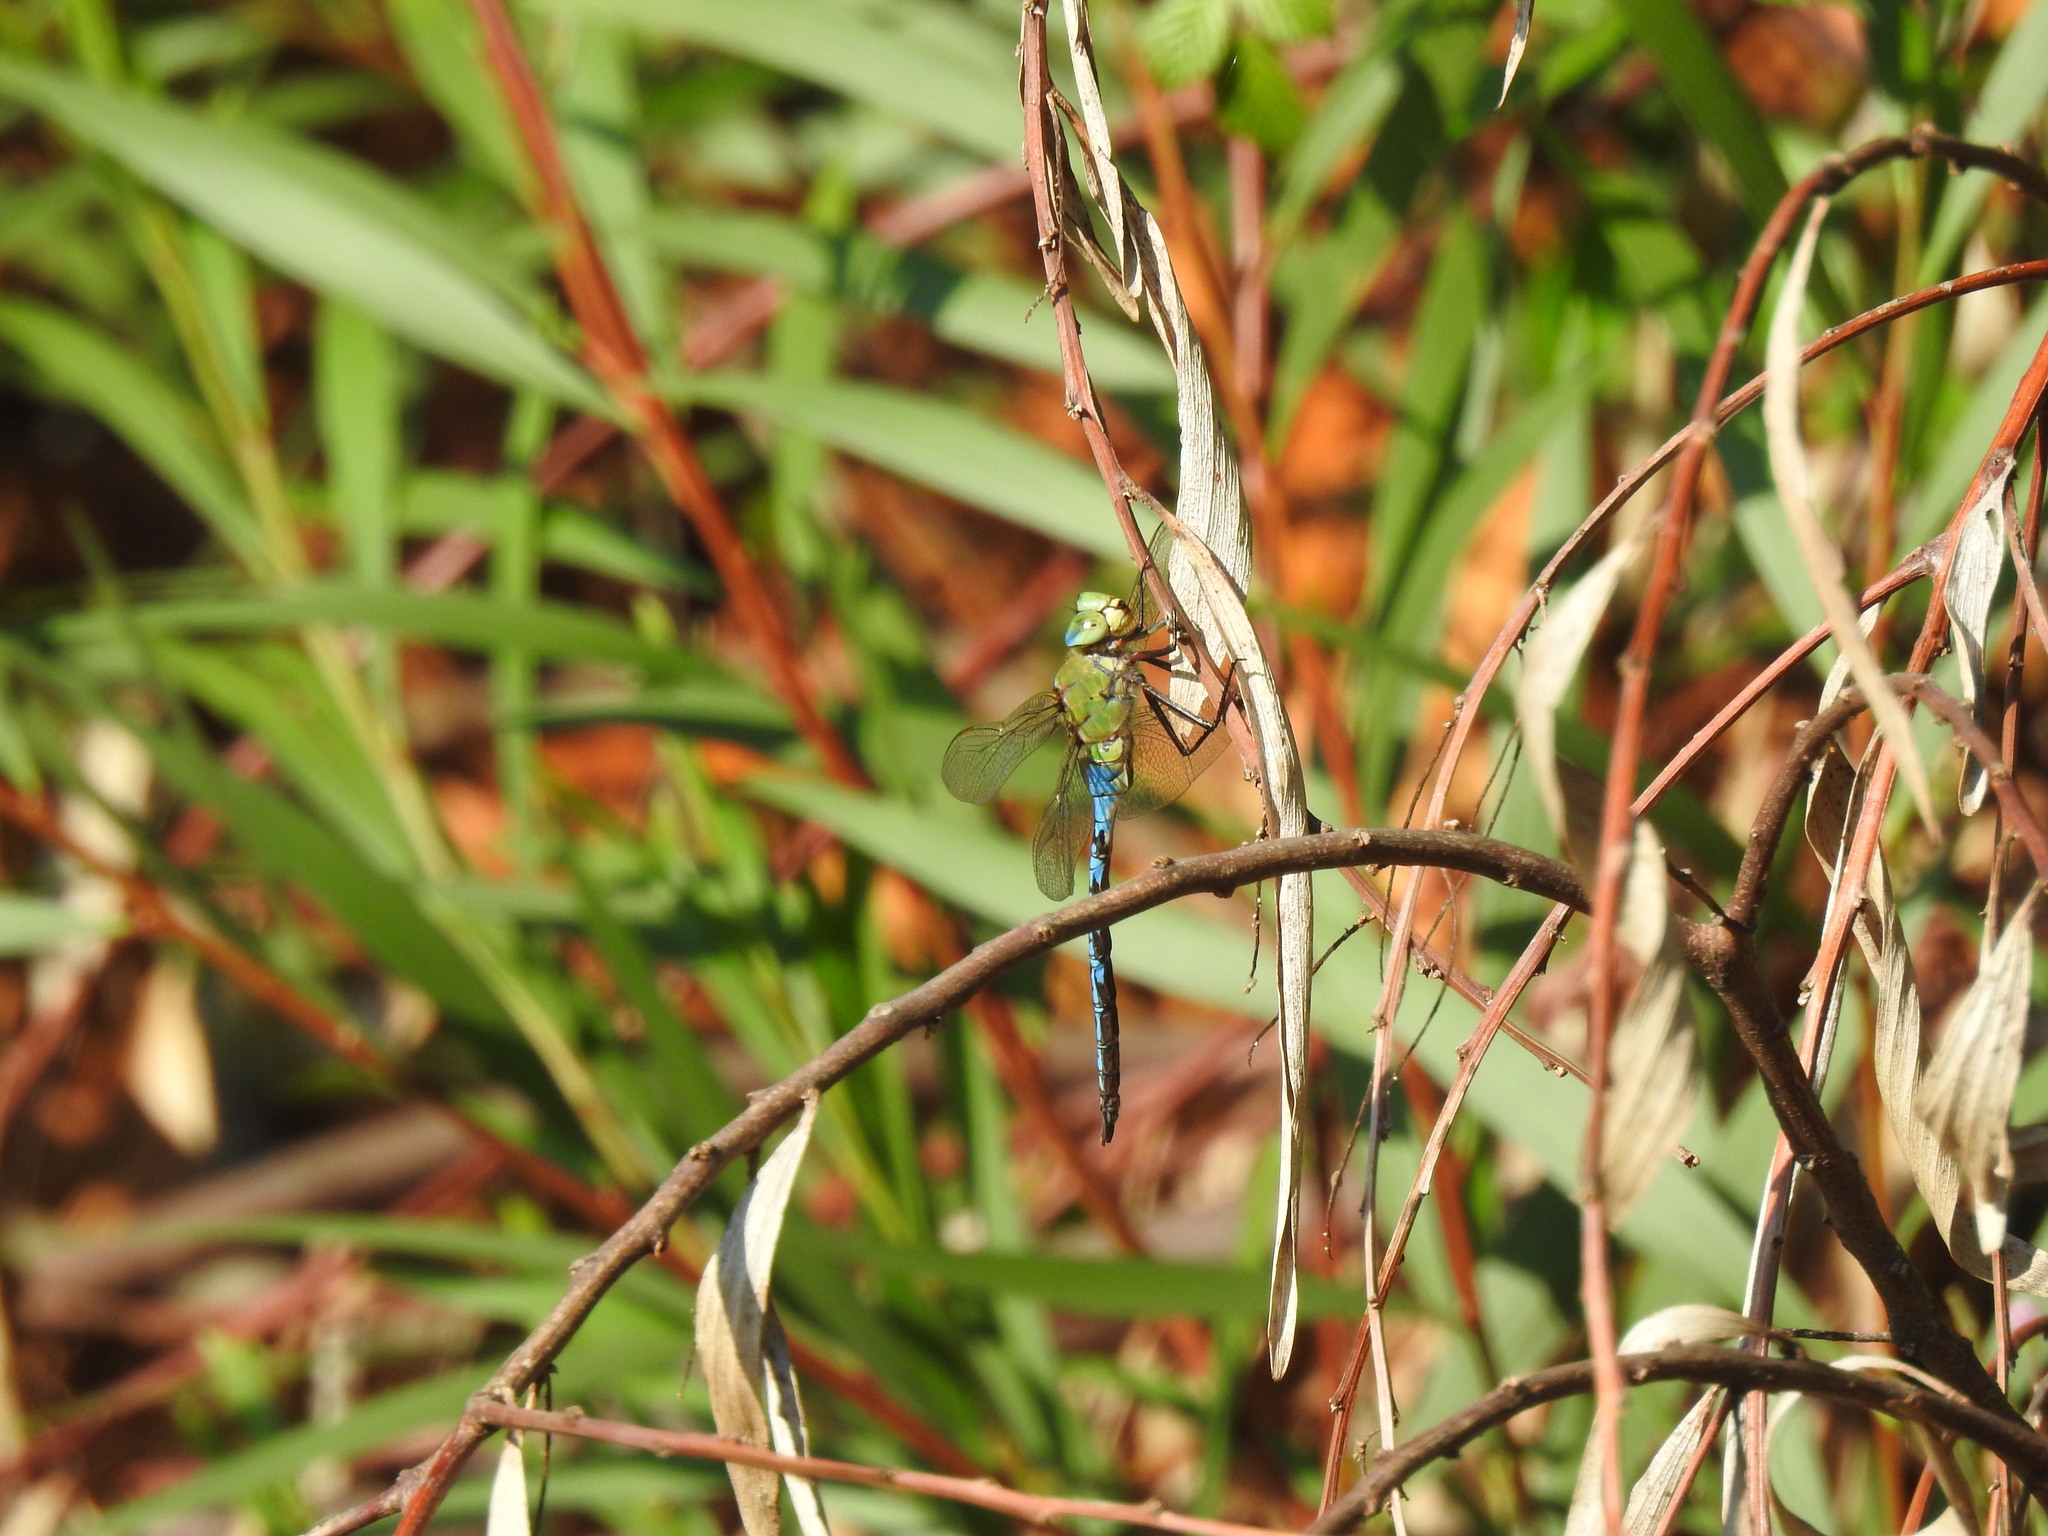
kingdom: Animalia
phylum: Arthropoda
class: Insecta
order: Odonata
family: Aeshnidae
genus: Anax
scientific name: Anax imperator
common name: Emperor dragonfly
